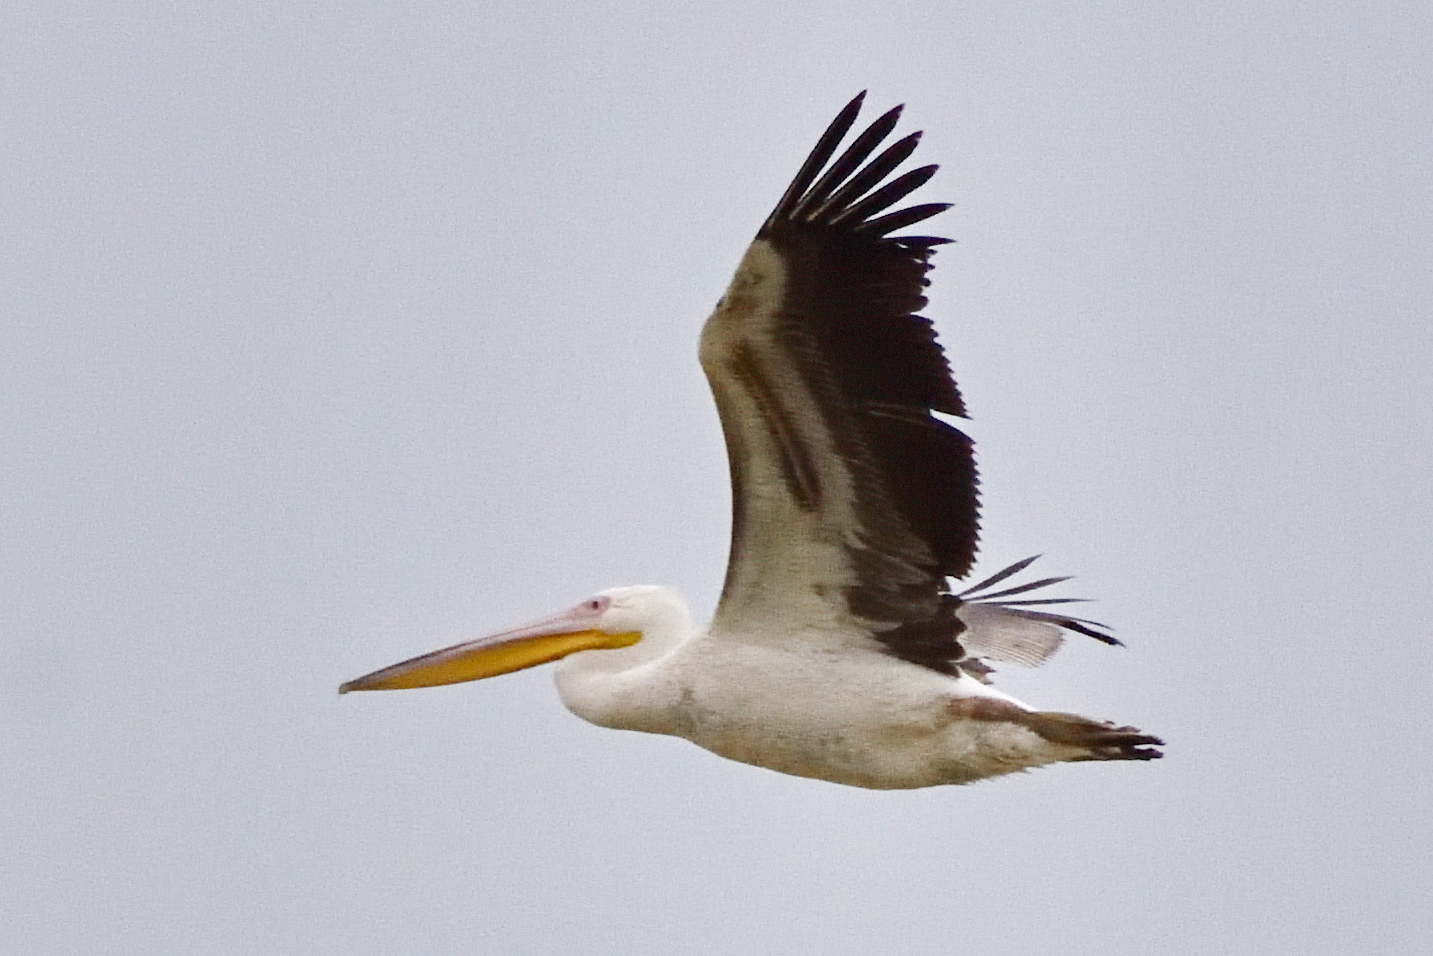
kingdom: Animalia
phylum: Chordata
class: Aves
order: Pelecaniformes
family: Pelecanidae
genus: Pelecanus
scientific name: Pelecanus onocrotalus
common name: Great white pelican
